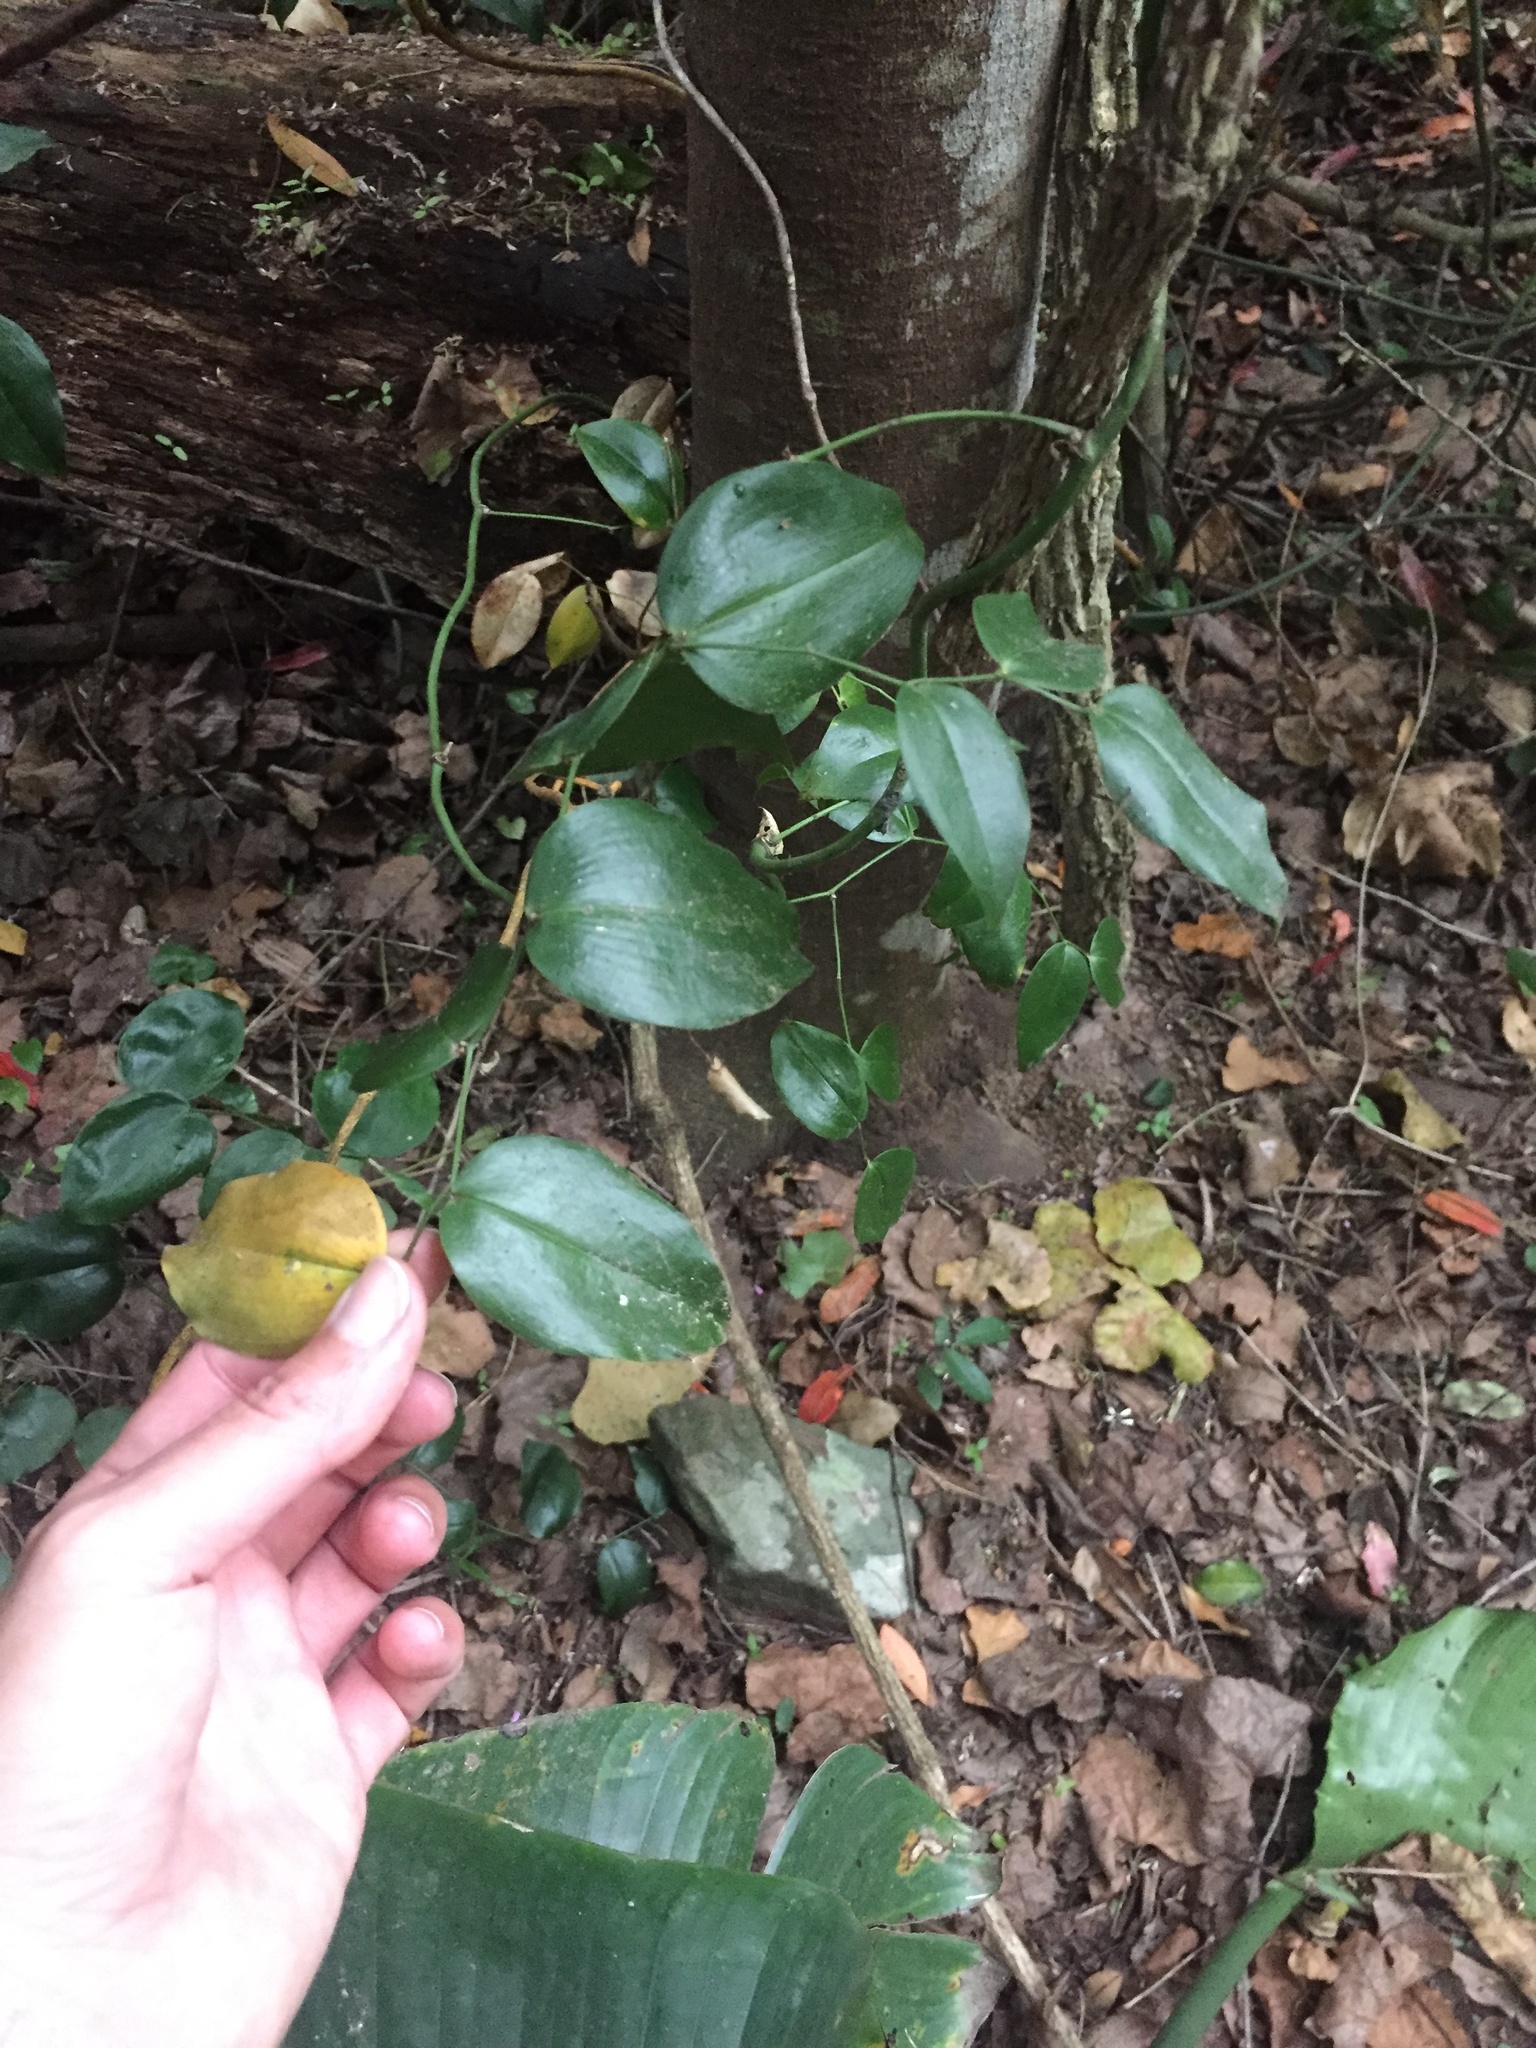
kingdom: Plantae
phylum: Tracheophyta
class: Liliopsida
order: Asparagales
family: Asparagaceae
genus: Behnia
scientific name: Behnia reticulata
